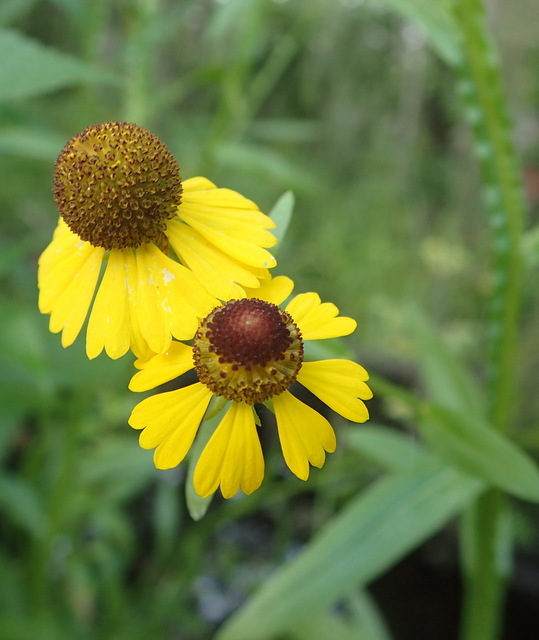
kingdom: Plantae
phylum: Tracheophyta
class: Magnoliopsida
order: Asterales
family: Asteraceae
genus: Helenium
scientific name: Helenium flexuosum
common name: Naked-flowered sneezeweed
